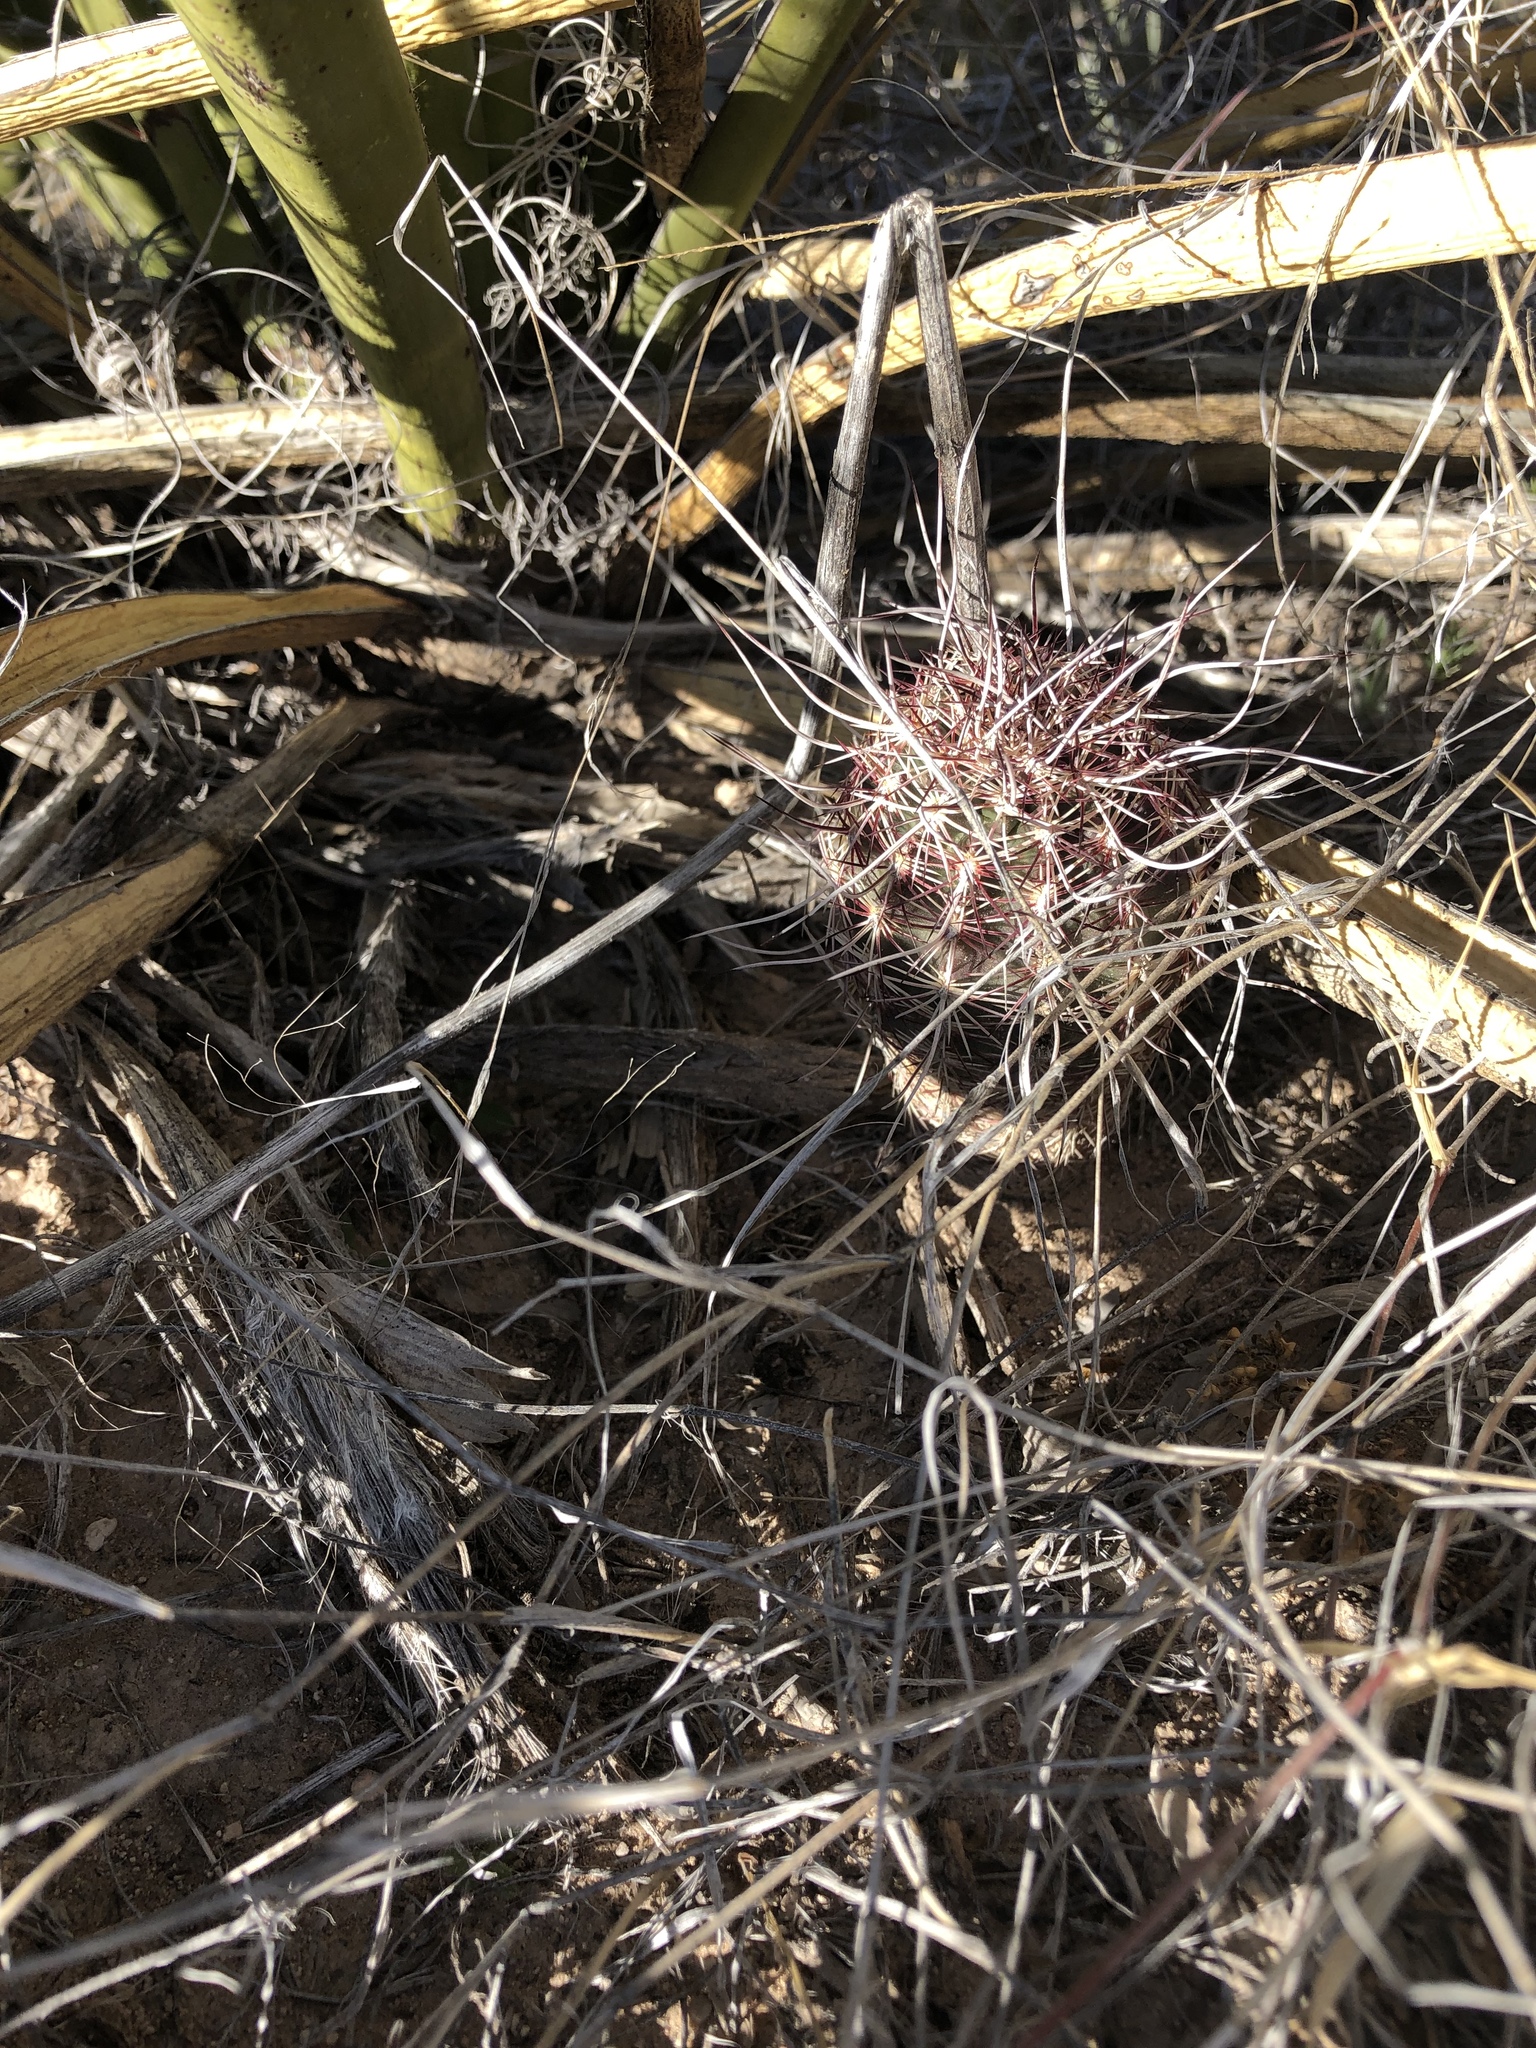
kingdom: Plantae
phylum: Tracheophyta
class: Magnoliopsida
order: Caryophyllales
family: Cactaceae
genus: Echinocereus
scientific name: Echinocereus viridiflorus
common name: Nylon hedgehog cactus
